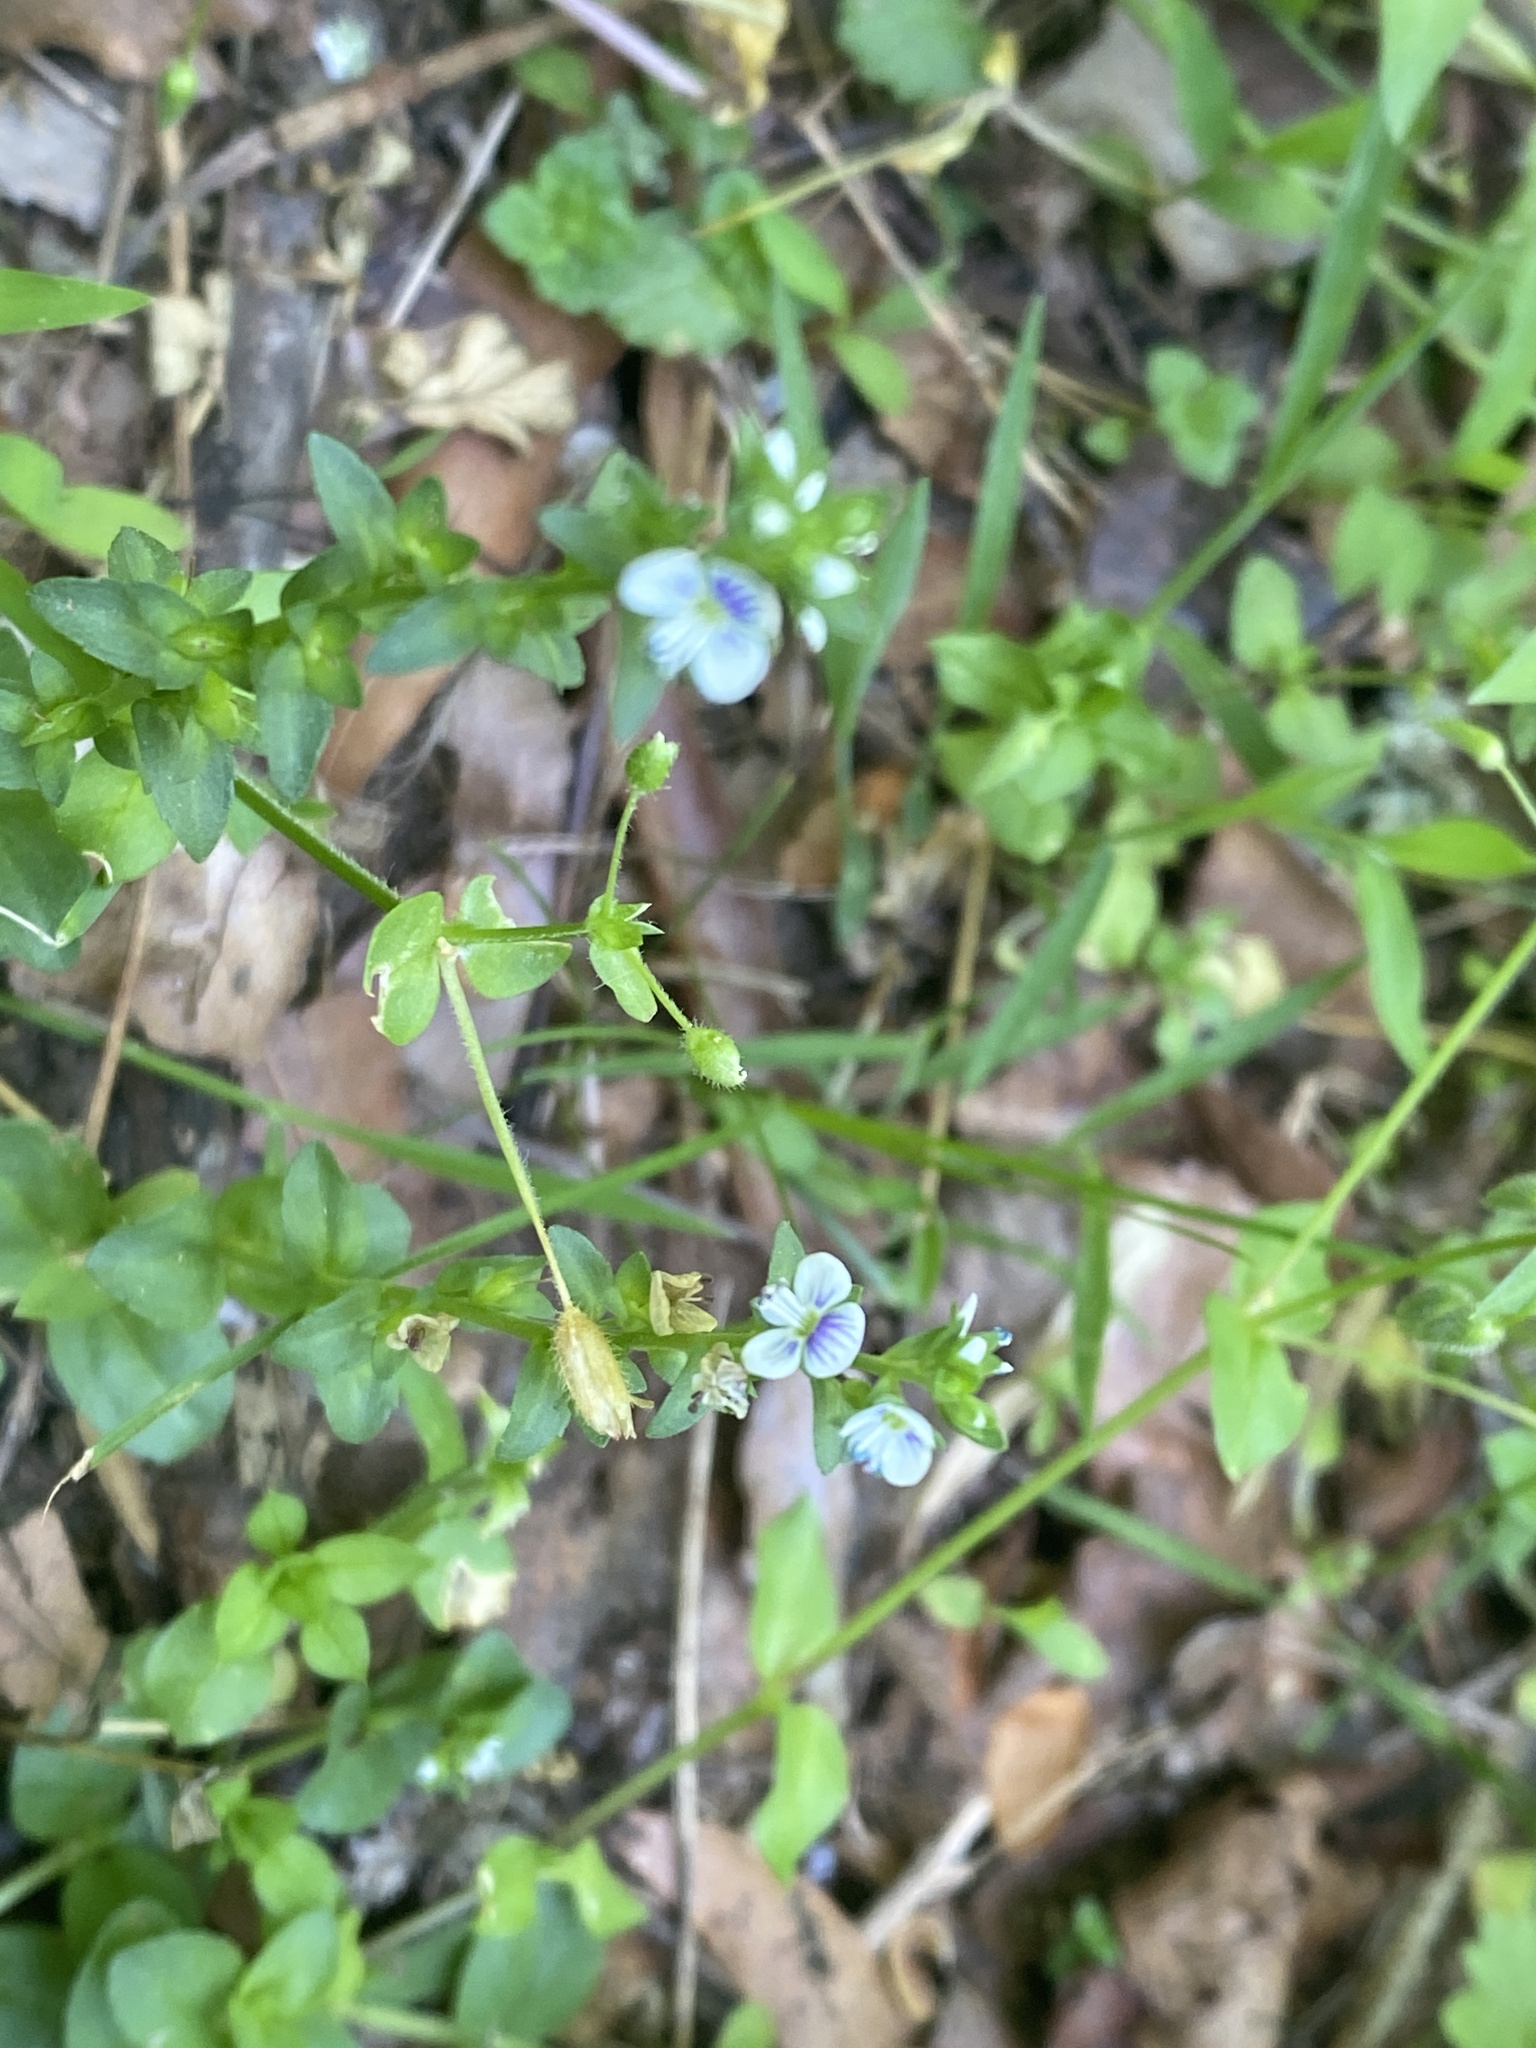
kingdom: Plantae
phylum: Tracheophyta
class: Magnoliopsida
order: Lamiales
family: Plantaginaceae
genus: Veronica
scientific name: Veronica serpyllifolia
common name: Thyme-leaved speedwell
